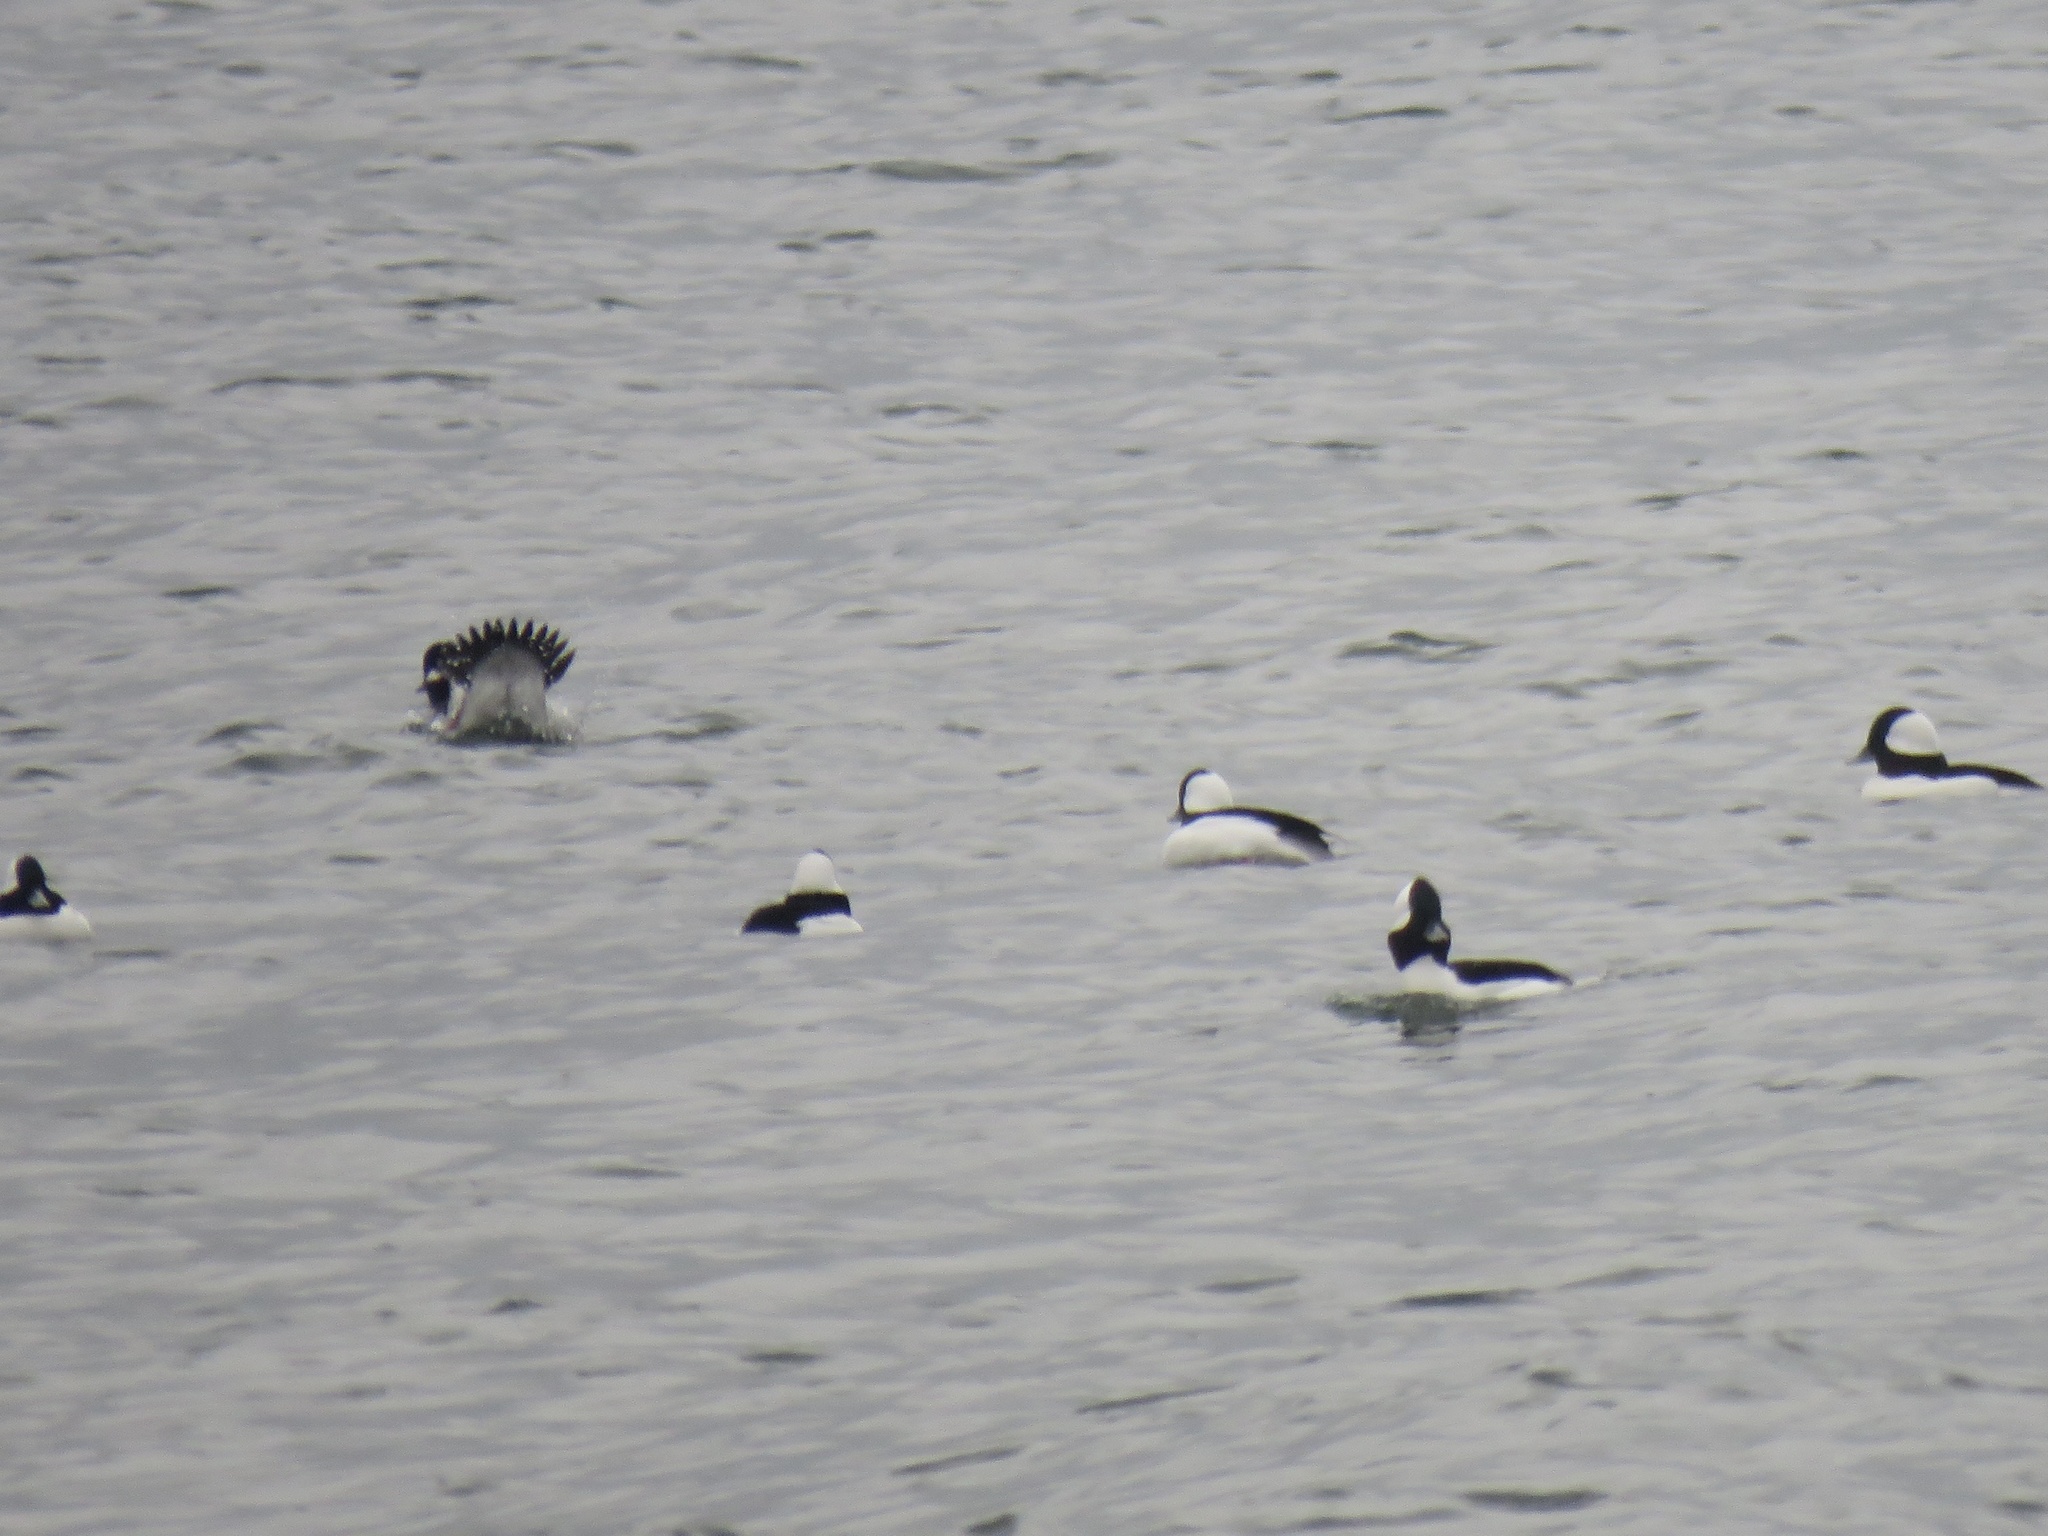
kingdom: Animalia
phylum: Chordata
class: Aves
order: Anseriformes
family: Anatidae
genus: Bucephala
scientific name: Bucephala albeola
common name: Bufflehead
